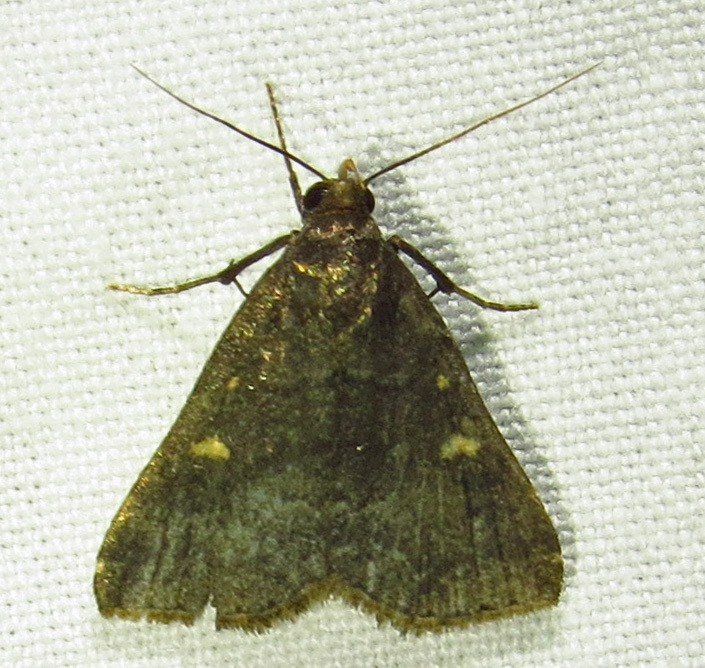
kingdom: Animalia
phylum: Arthropoda
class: Insecta
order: Lepidoptera
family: Erebidae
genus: Tetanolita
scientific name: Tetanolita mynesalis
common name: Smoky tetanolita moth
